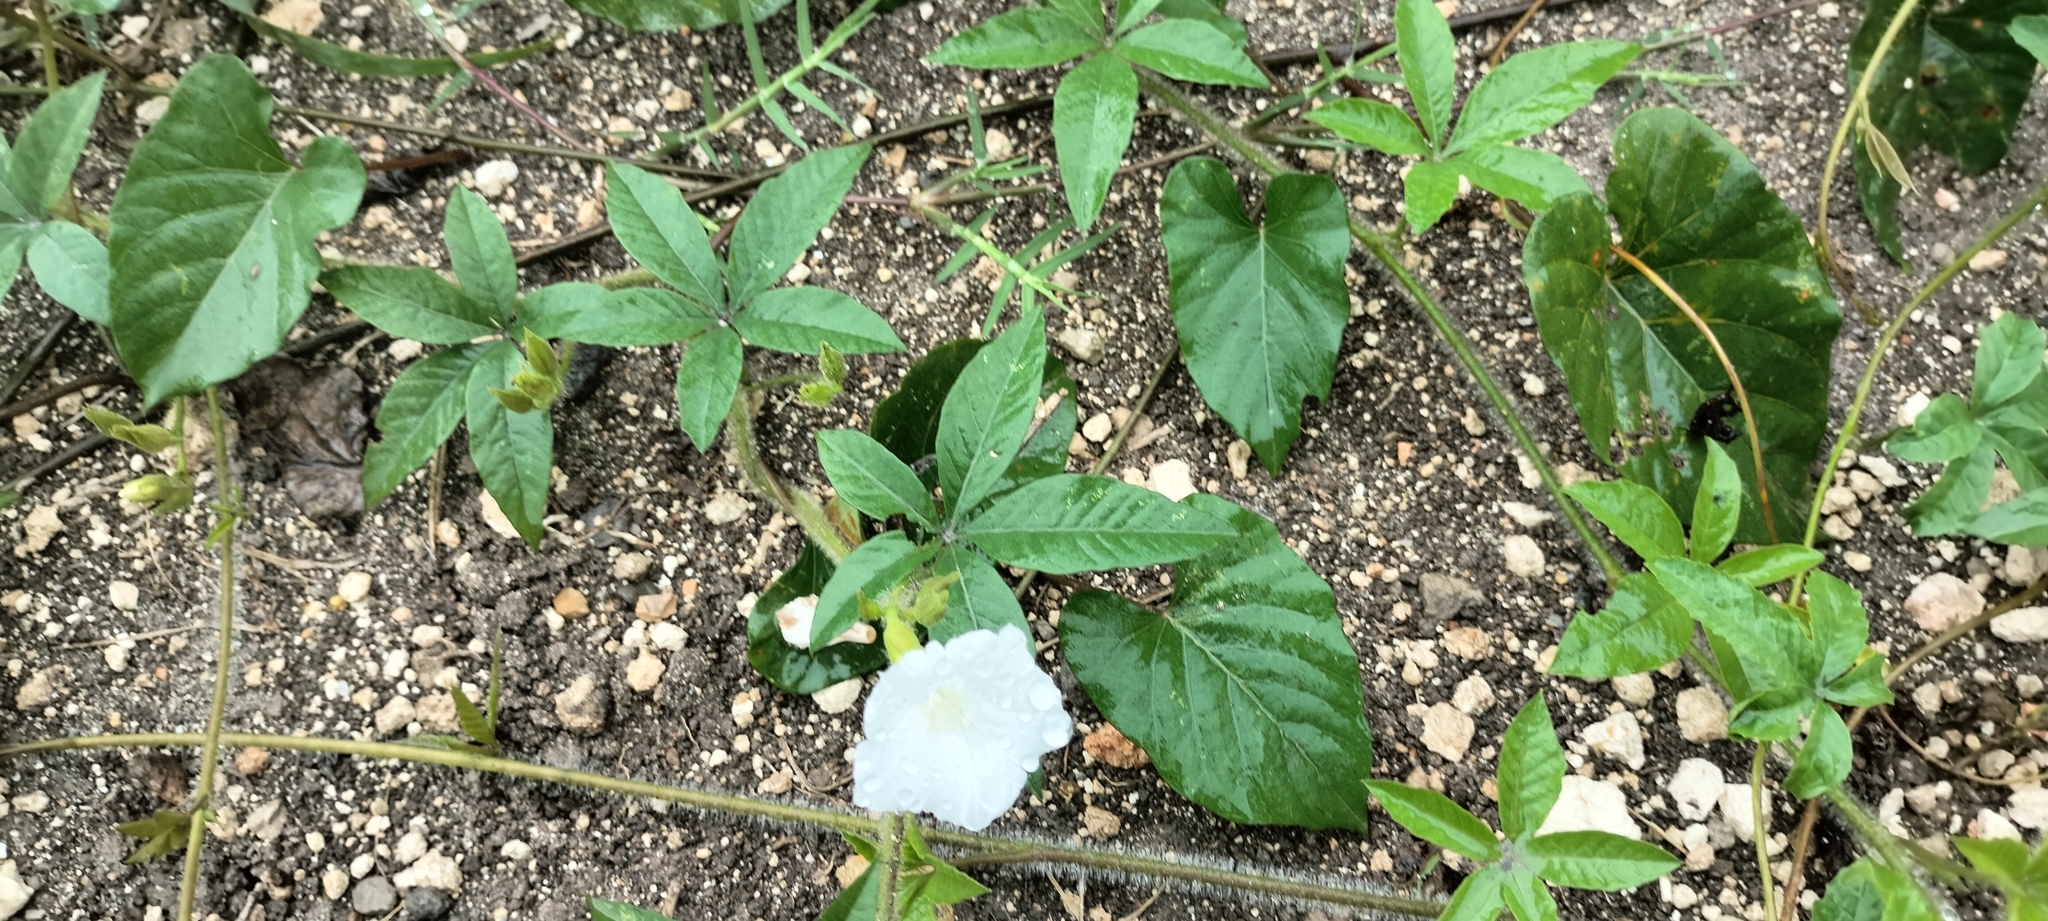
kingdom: Plantae
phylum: Tracheophyta
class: Magnoliopsida
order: Solanales
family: Convolvulaceae
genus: Distimake
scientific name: Distimake aegyptius
